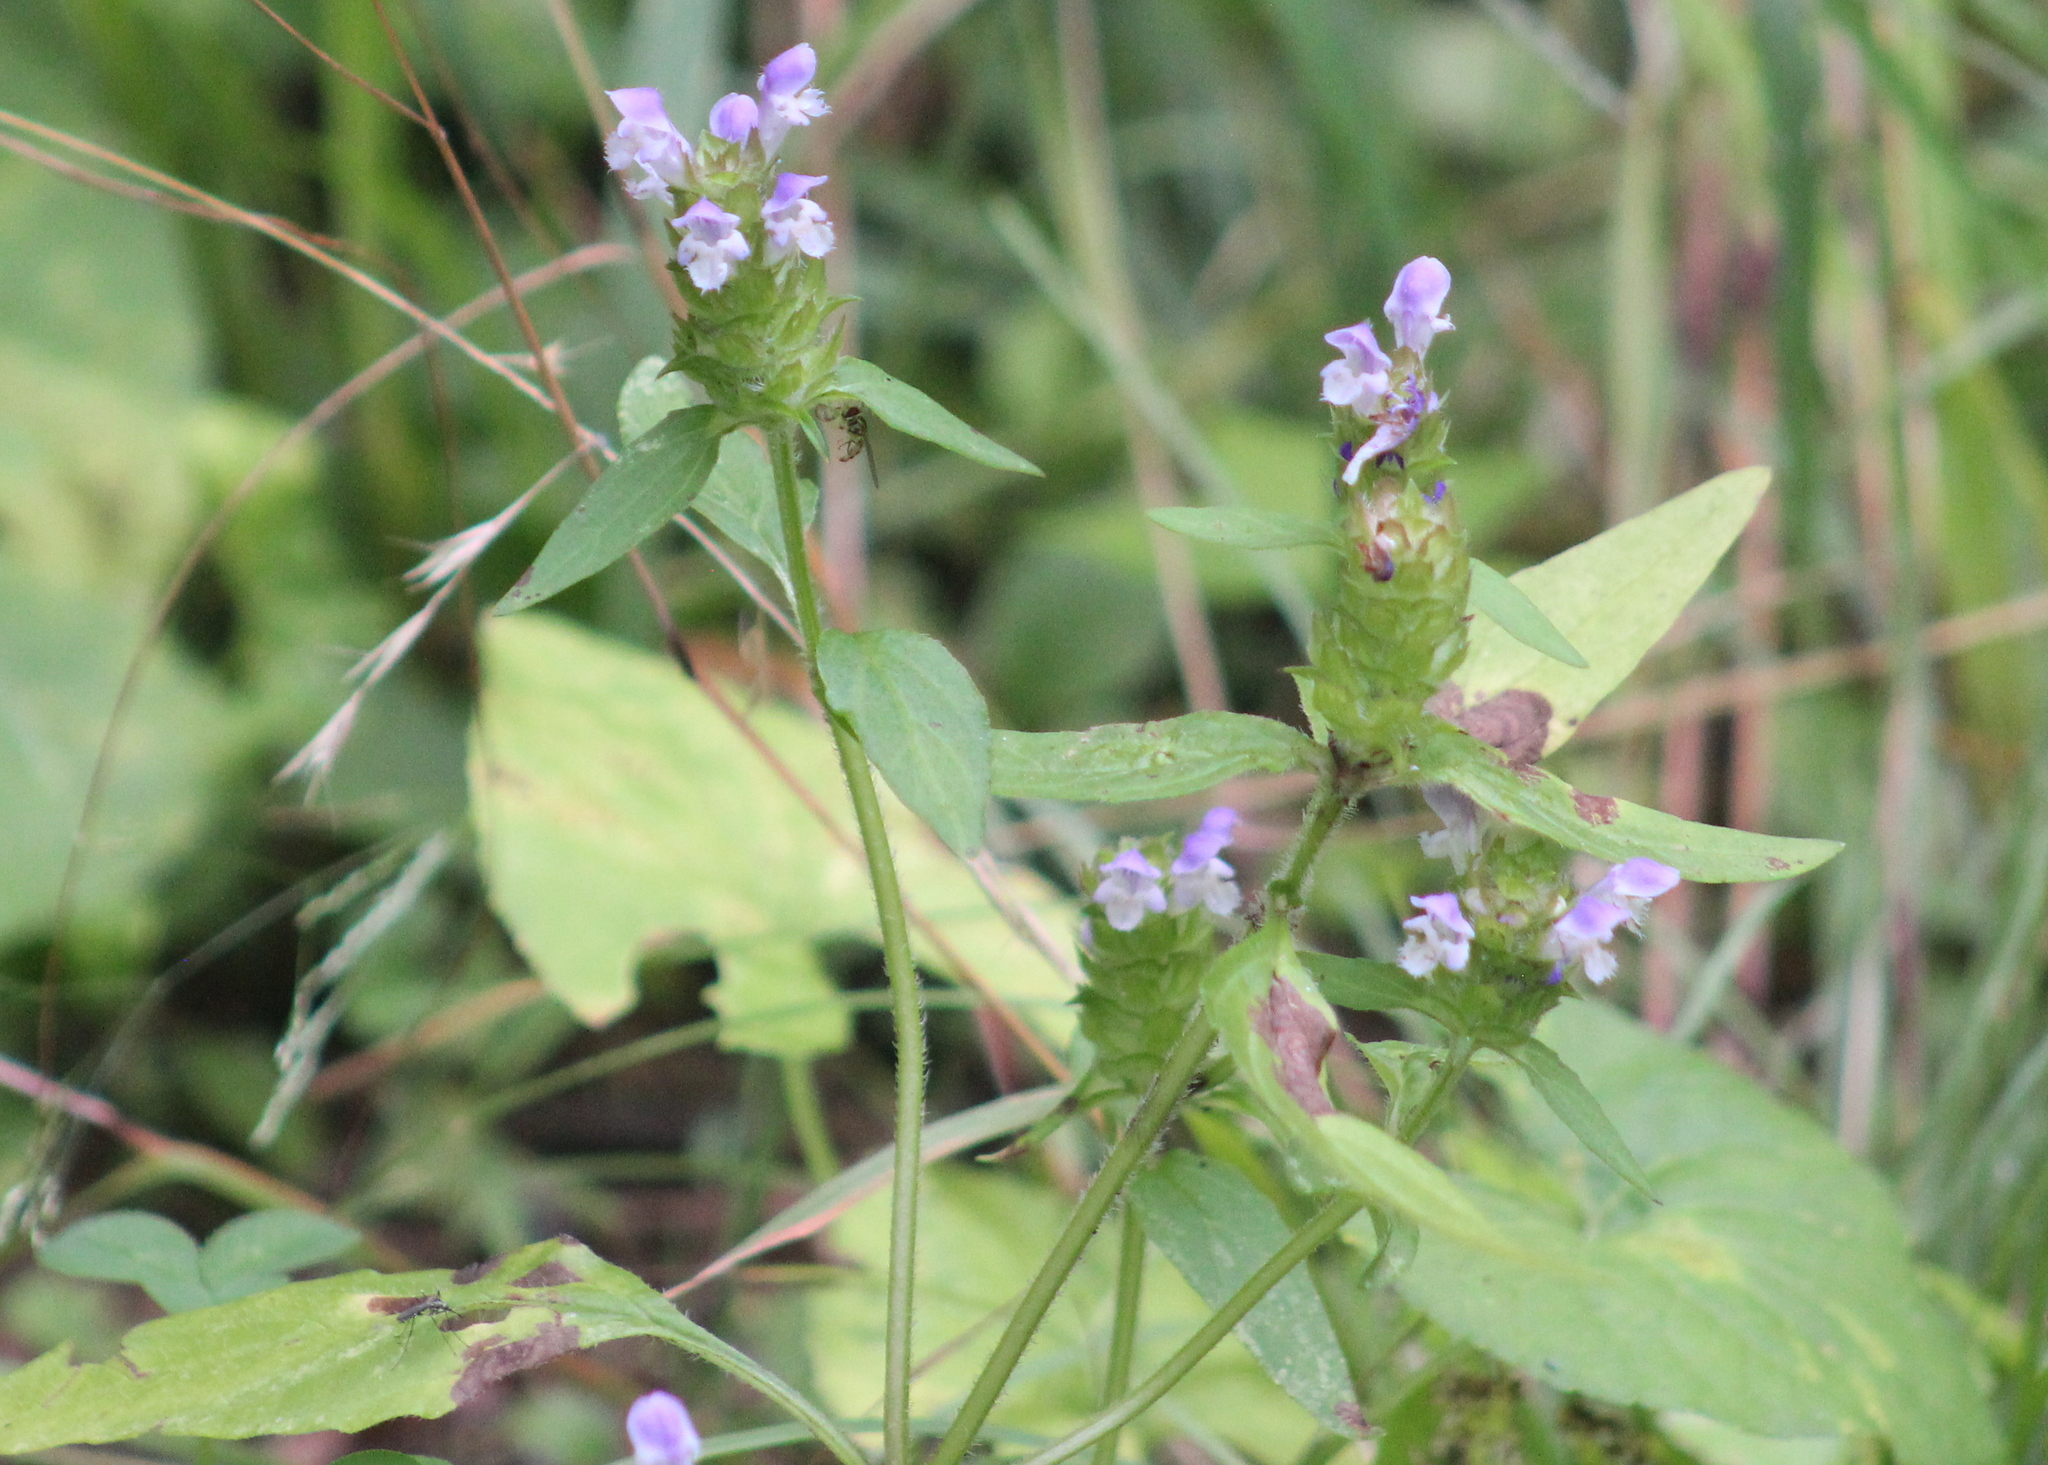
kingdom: Plantae
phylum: Tracheophyta
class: Magnoliopsida
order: Lamiales
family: Lamiaceae
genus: Prunella
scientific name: Prunella vulgaris
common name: Heal-all
